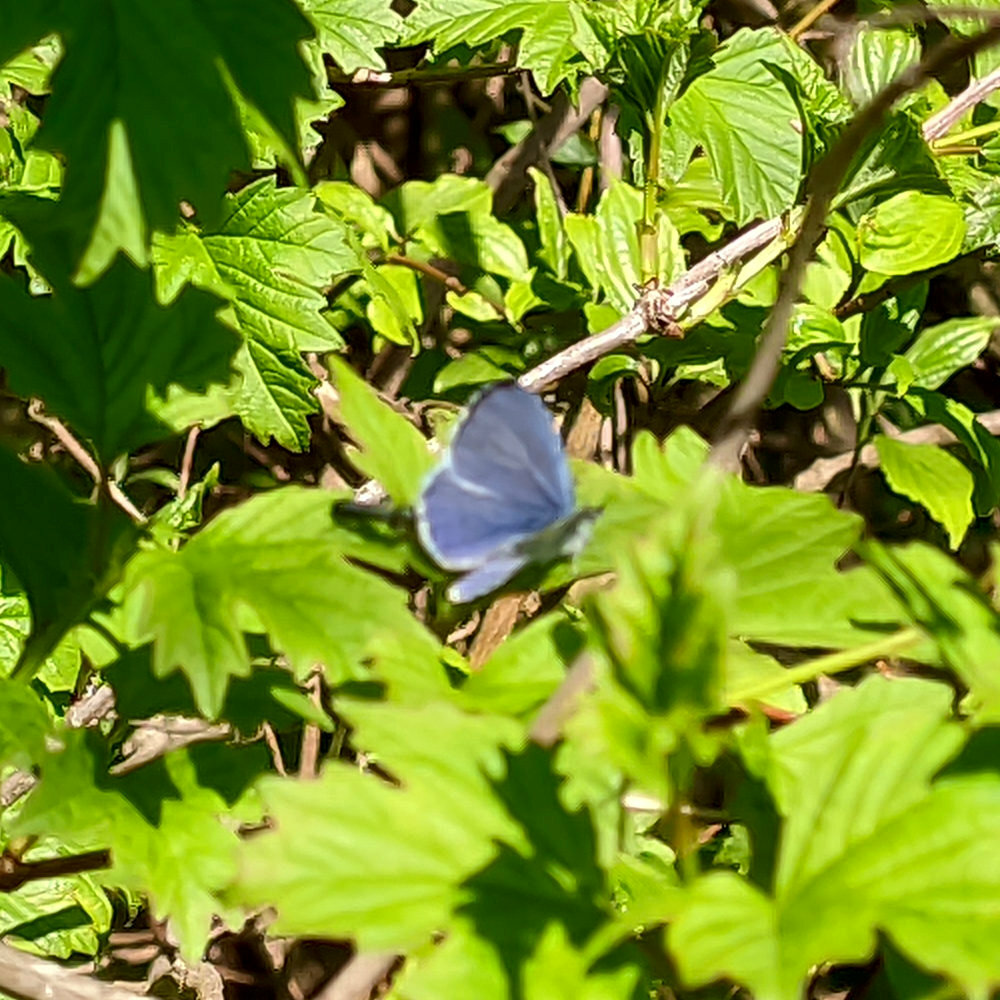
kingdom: Animalia
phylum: Arthropoda
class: Insecta
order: Lepidoptera
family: Lycaenidae
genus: Celastrina
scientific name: Celastrina argiolus
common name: Holly blue
